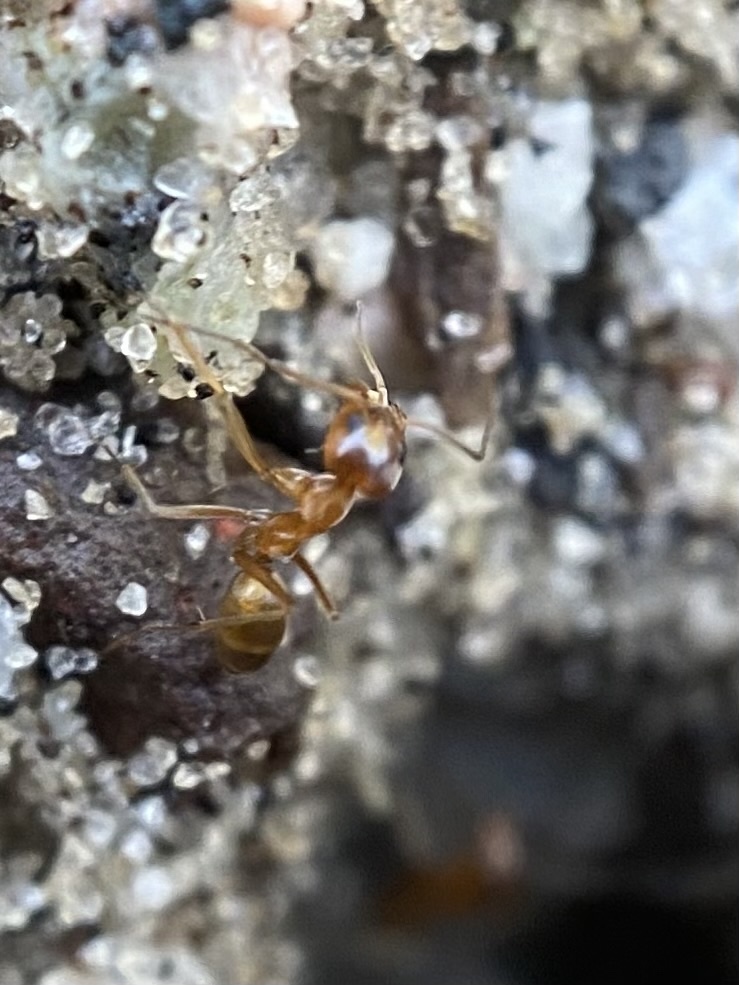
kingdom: Animalia
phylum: Arthropoda
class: Insecta
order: Hymenoptera
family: Formicidae
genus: Dorymyrmex
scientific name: Dorymyrmex bureni
